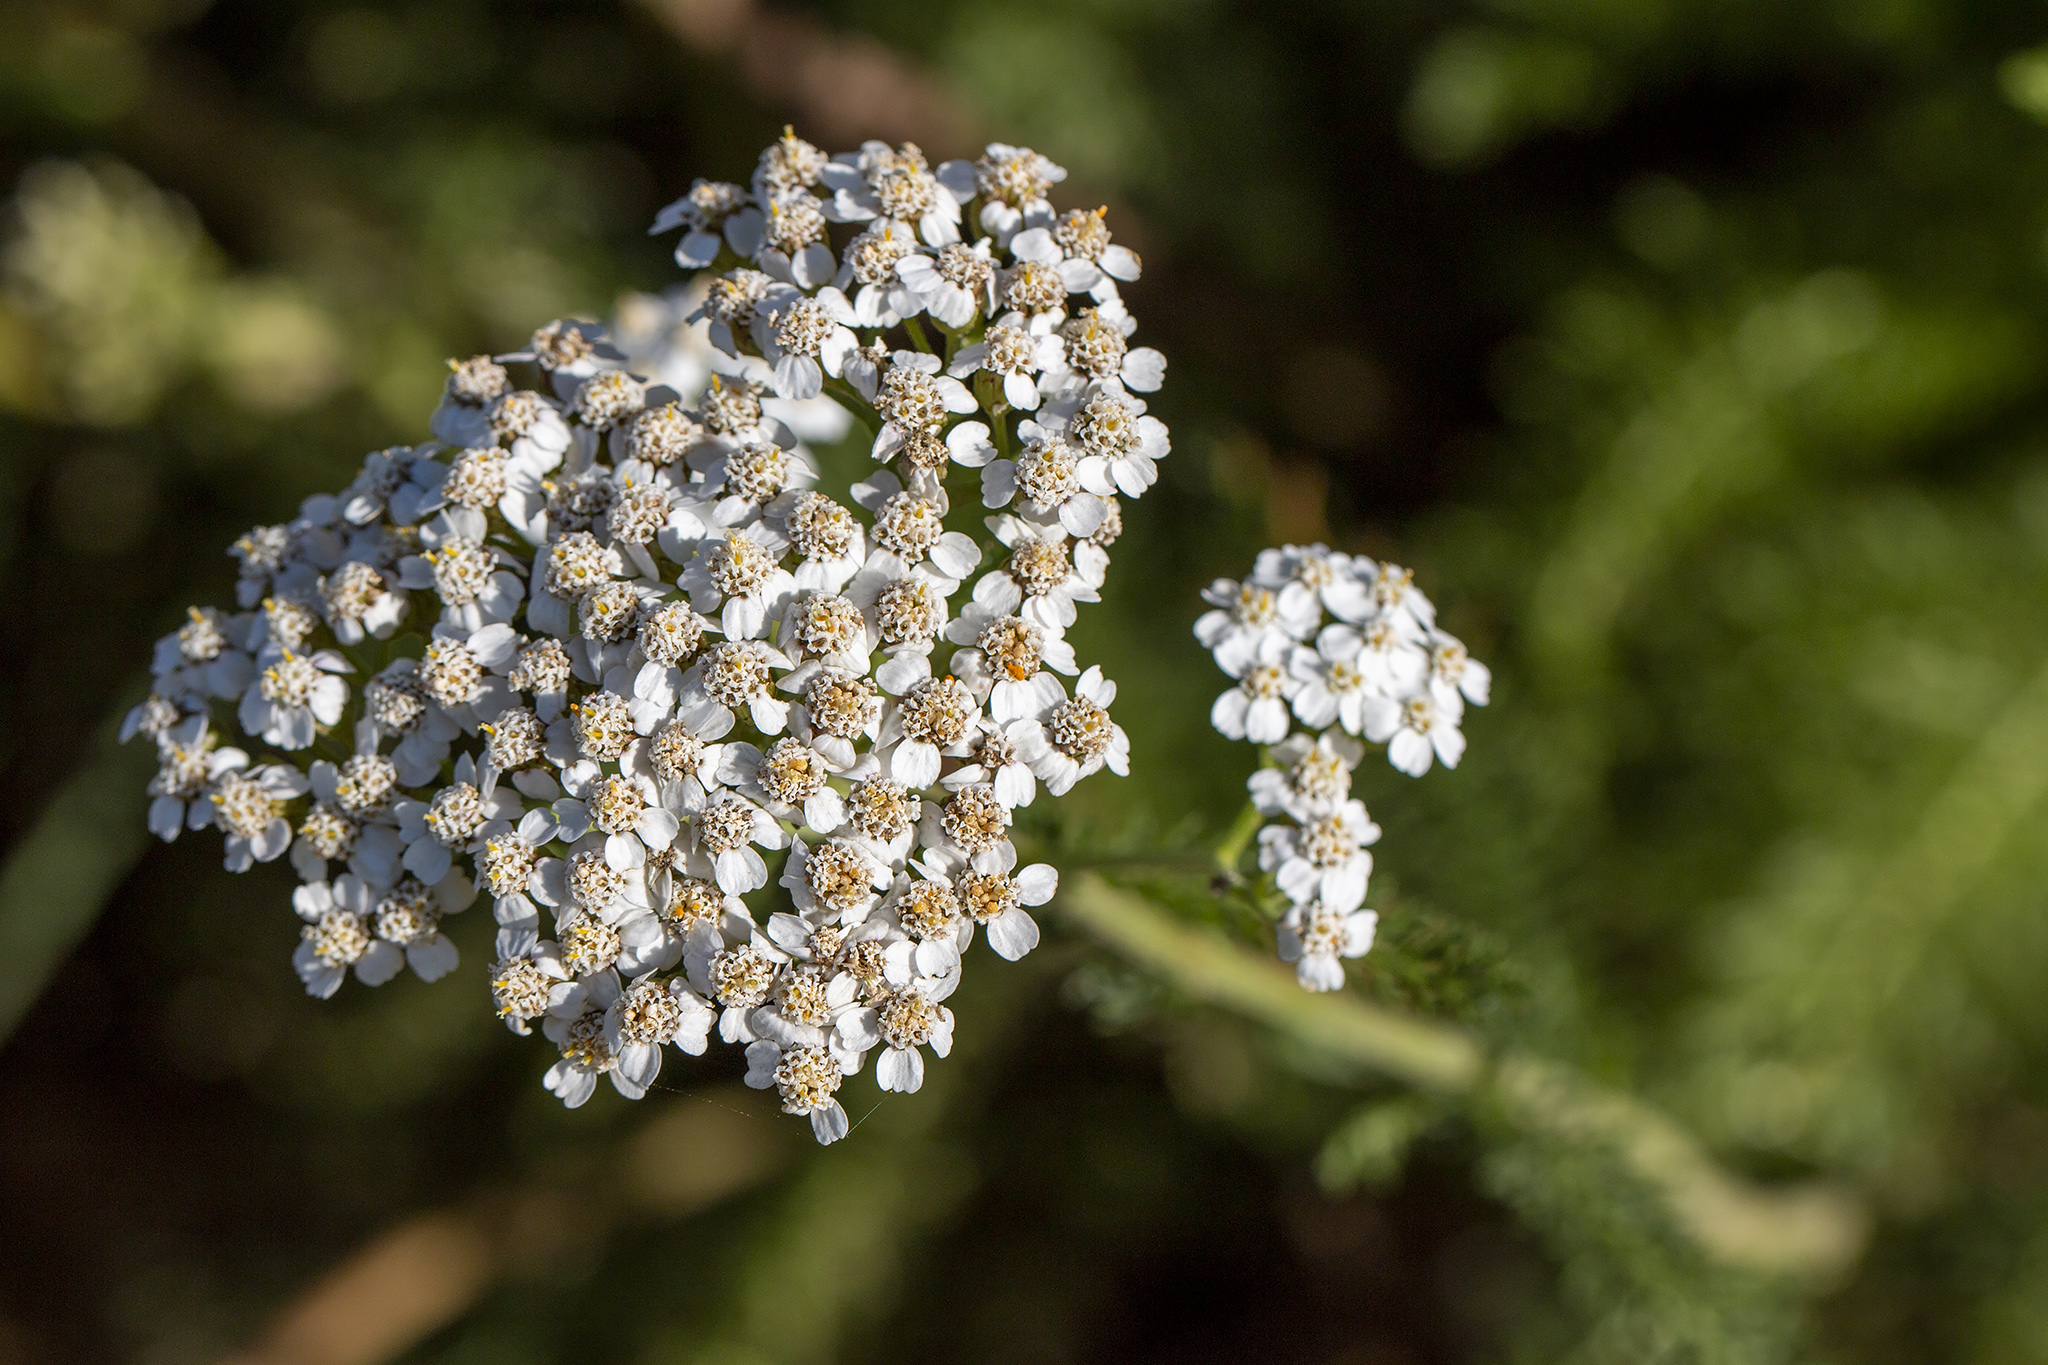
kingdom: Plantae
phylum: Tracheophyta
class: Magnoliopsida
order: Asterales
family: Asteraceae
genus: Achillea
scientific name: Achillea millefolium
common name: Yarrow
